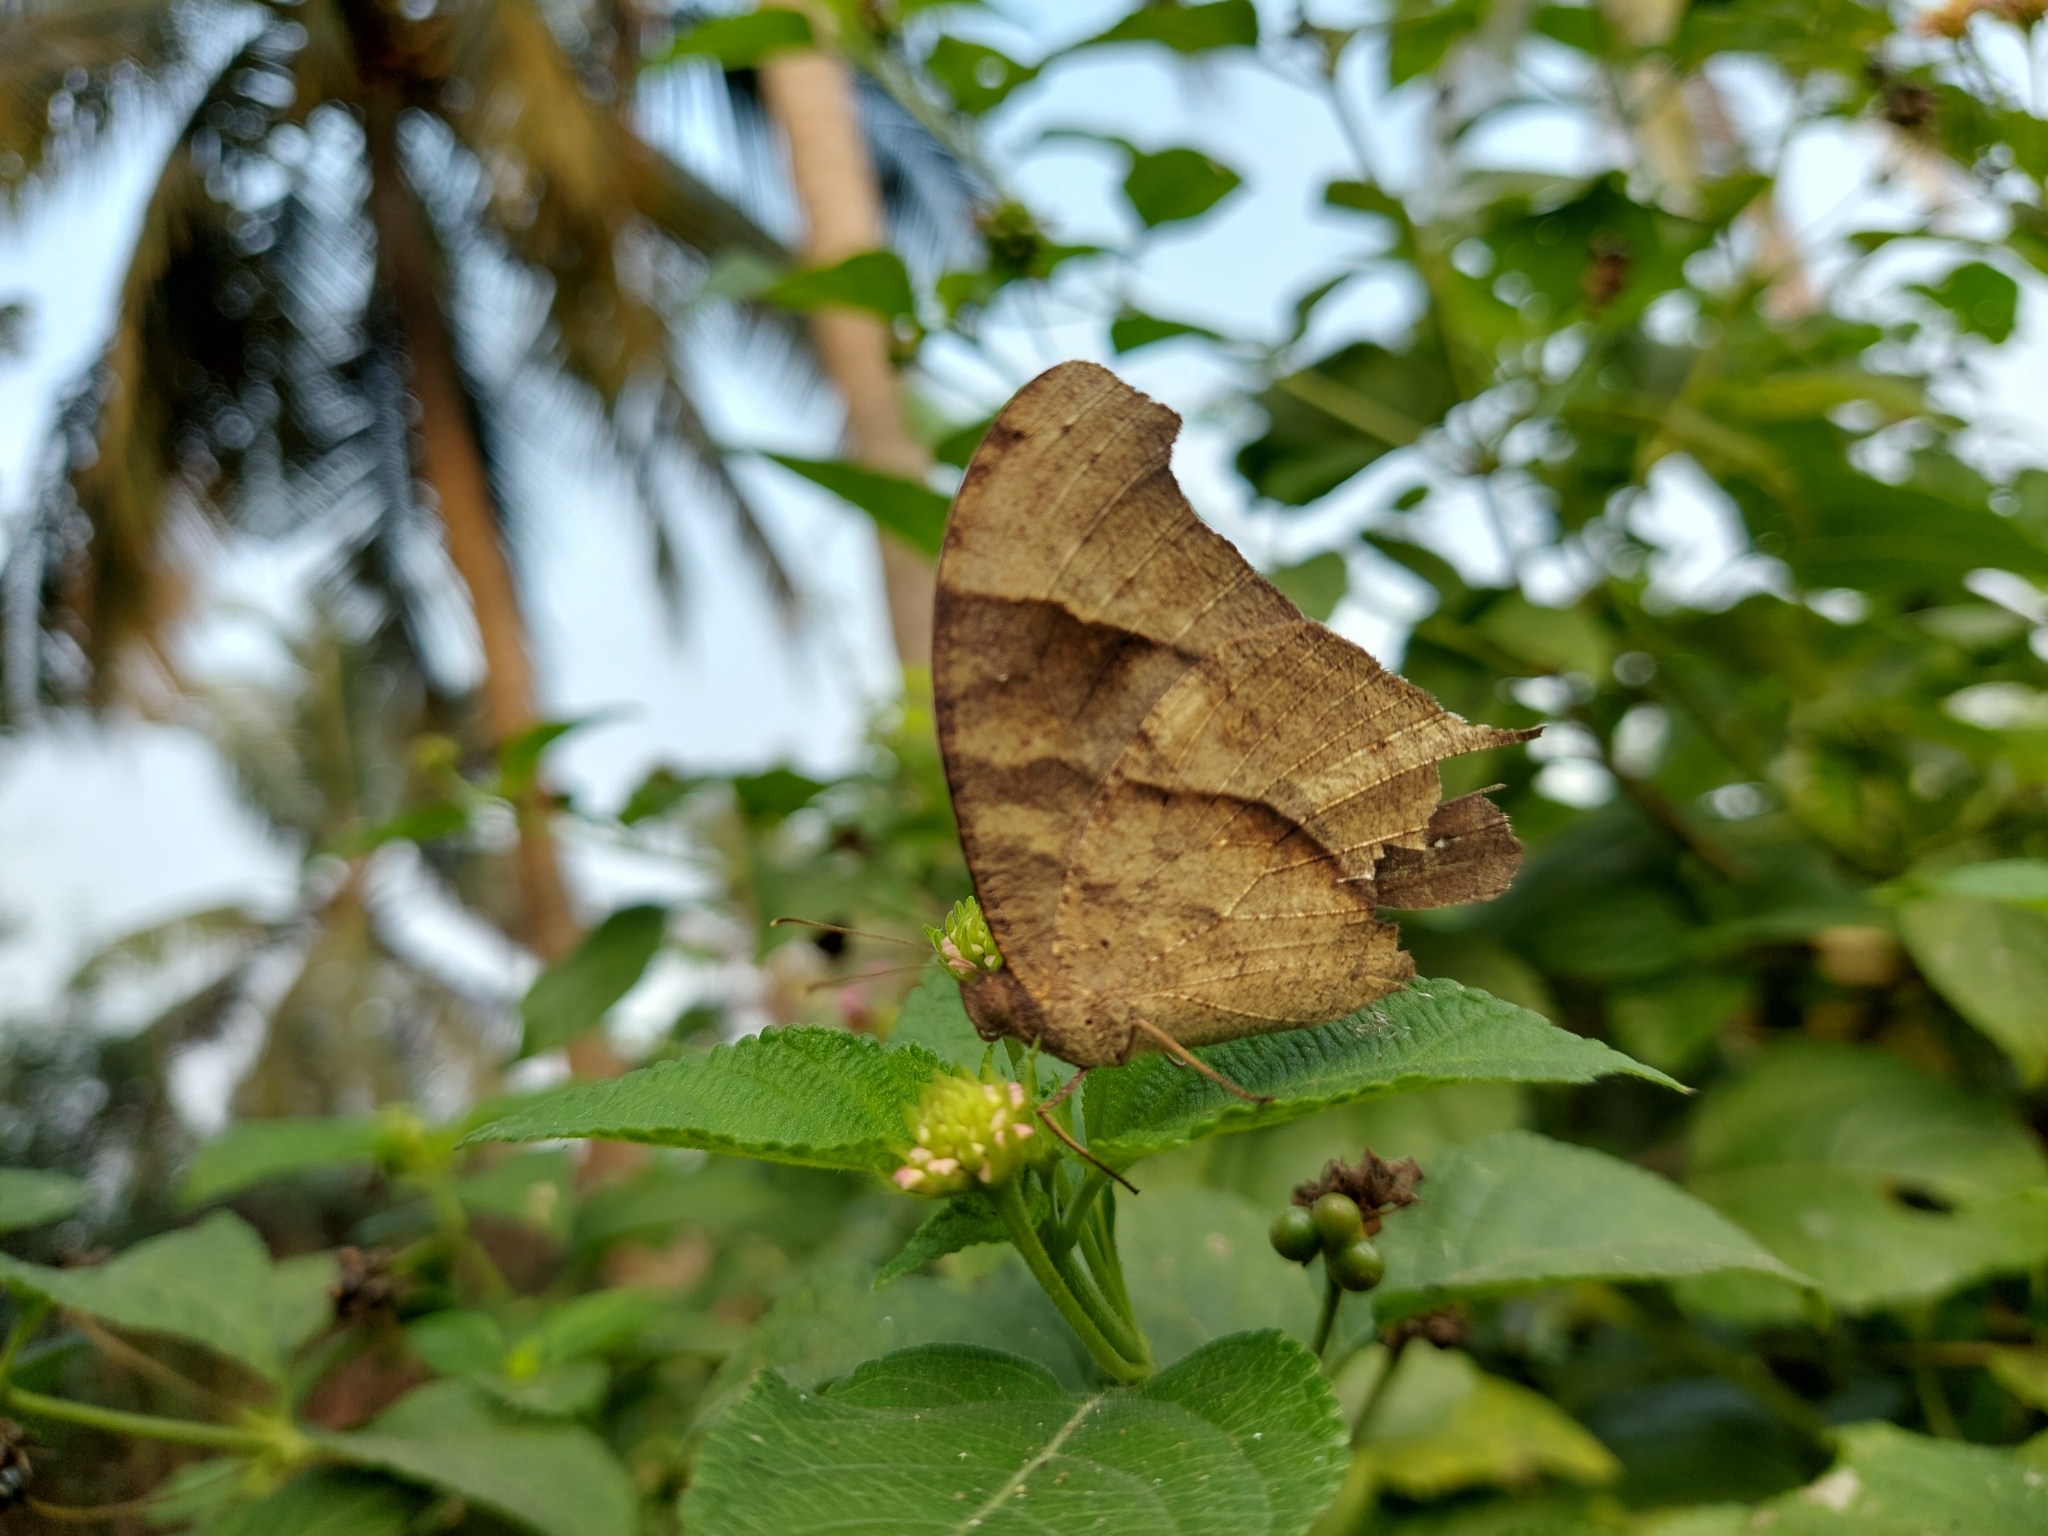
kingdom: Animalia
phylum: Arthropoda
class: Insecta
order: Lepidoptera
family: Nymphalidae
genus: Melanitis
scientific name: Melanitis leda
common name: Twilight brown
